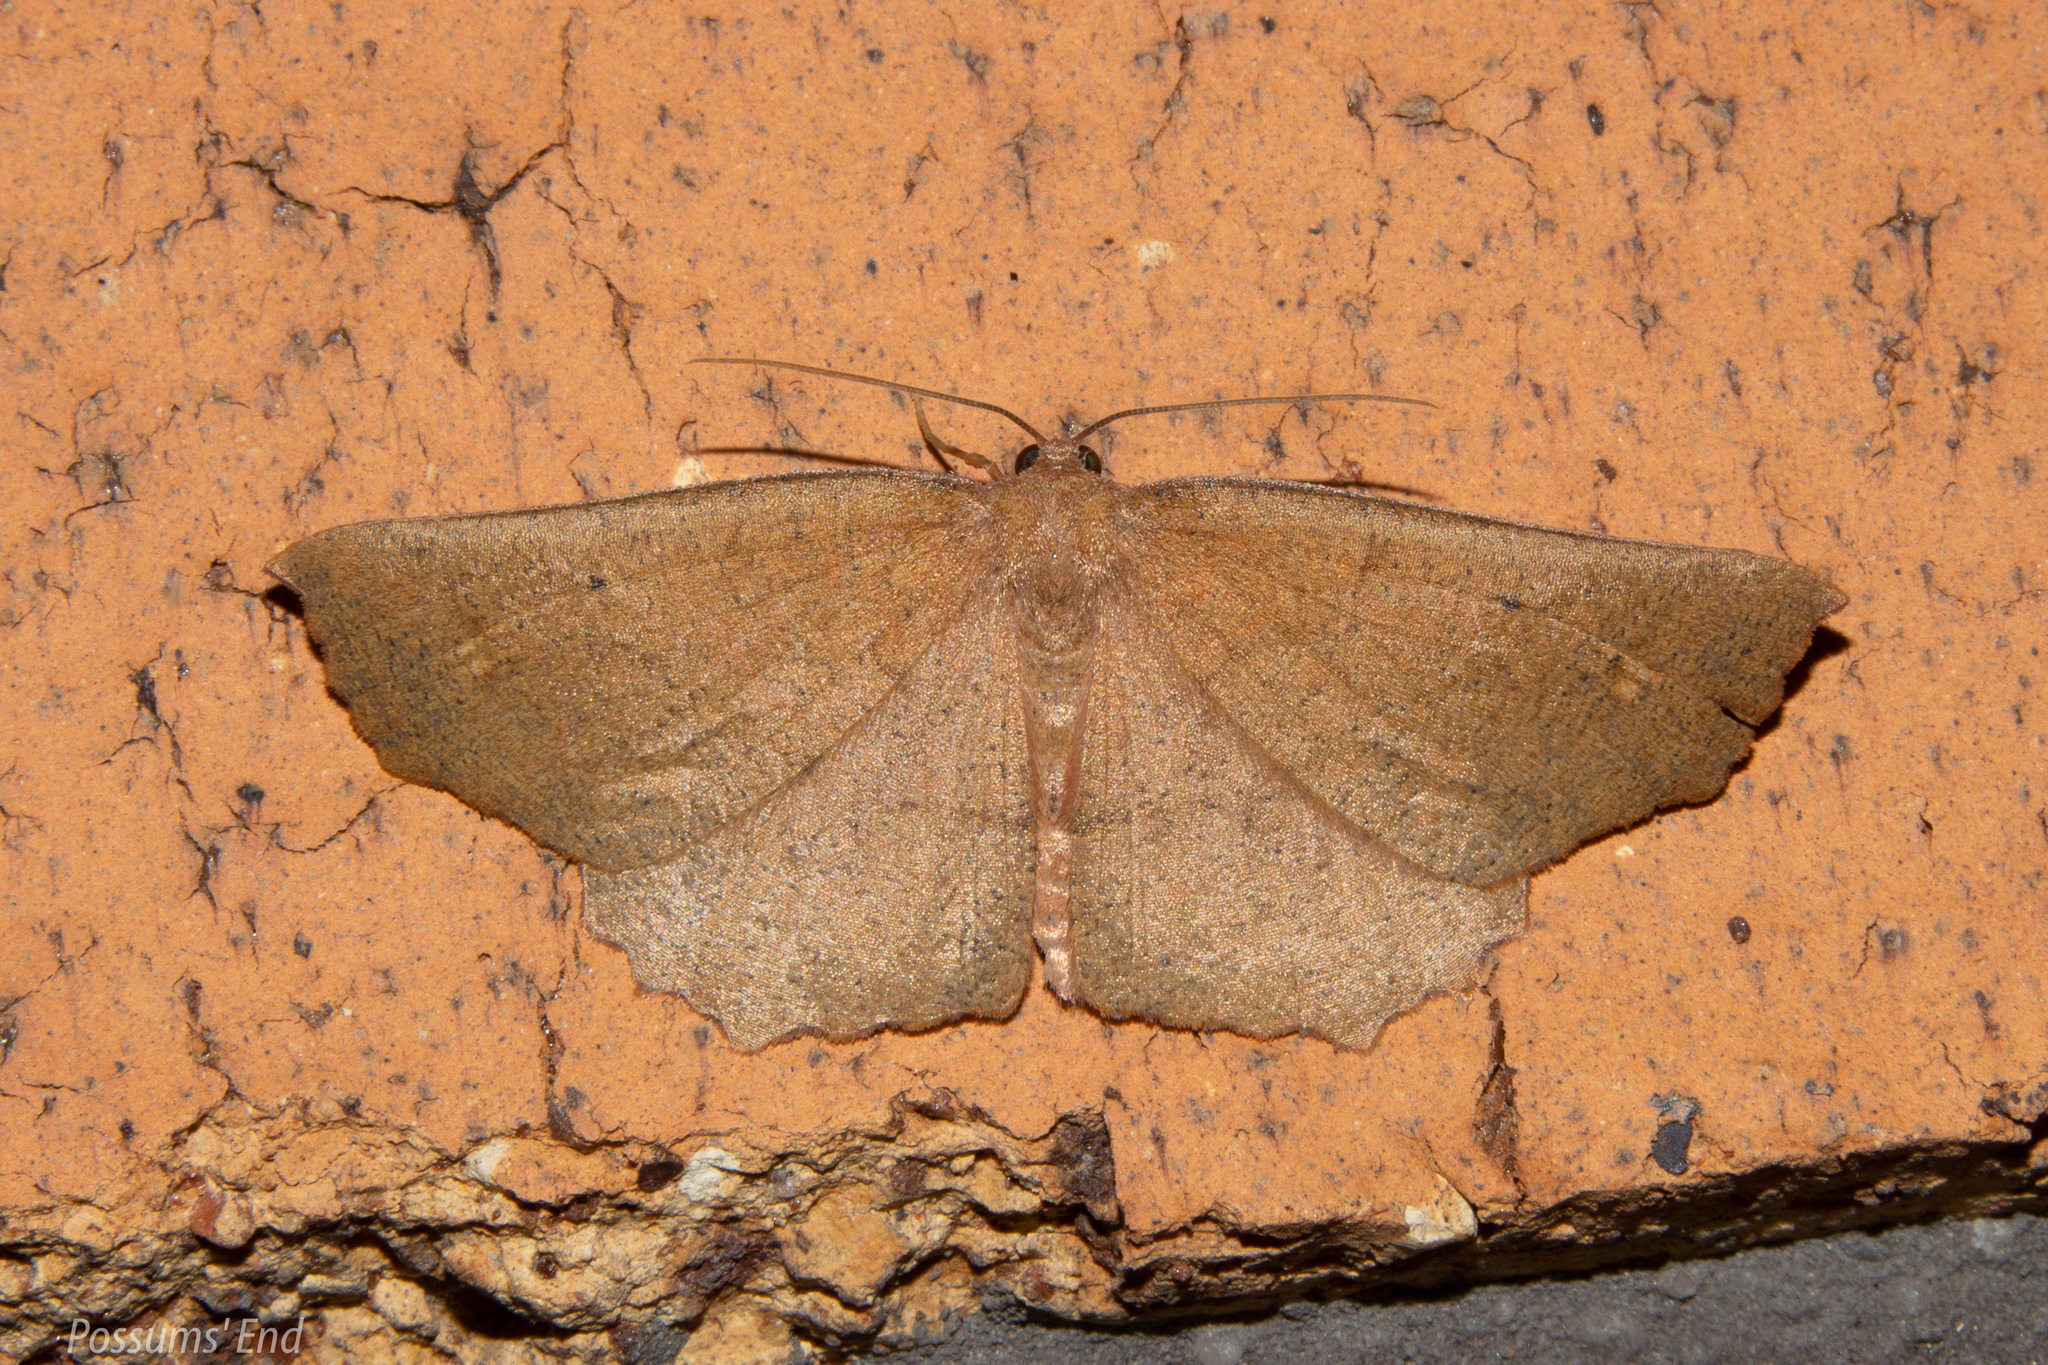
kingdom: Animalia
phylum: Arthropoda
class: Insecta
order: Lepidoptera
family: Geometridae
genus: Xyridacma
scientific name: Xyridacma ustaria
